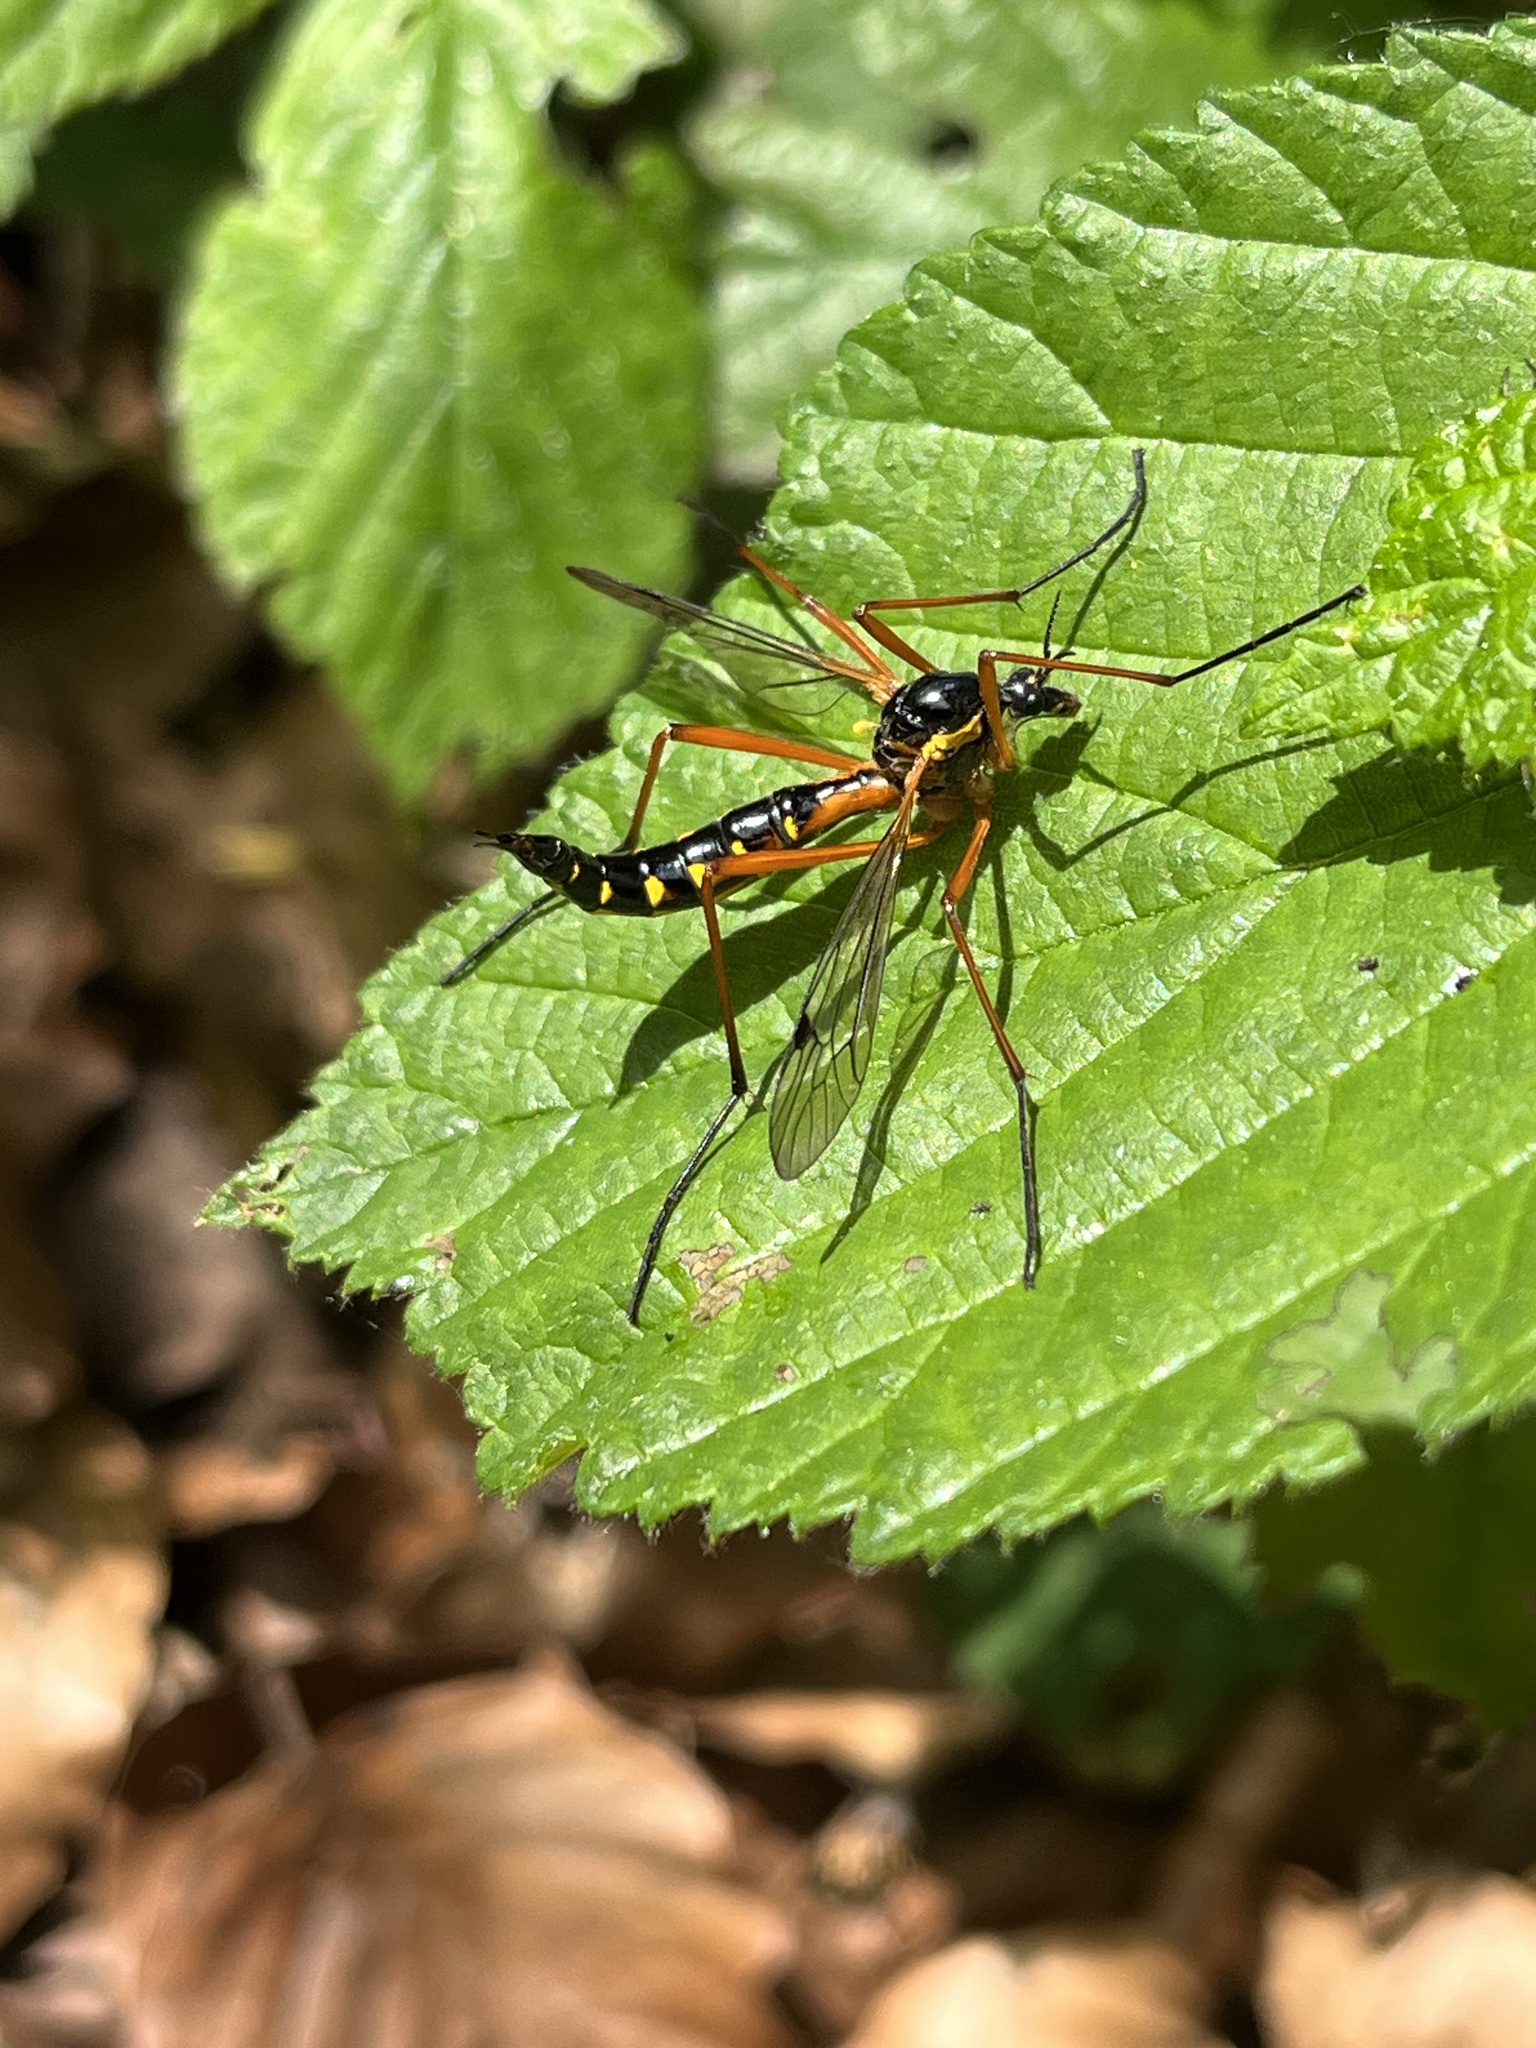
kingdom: Animalia
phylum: Arthropoda
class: Insecta
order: Diptera
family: Tipulidae
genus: Ctenophora
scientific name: Ctenophora pectinicornis
